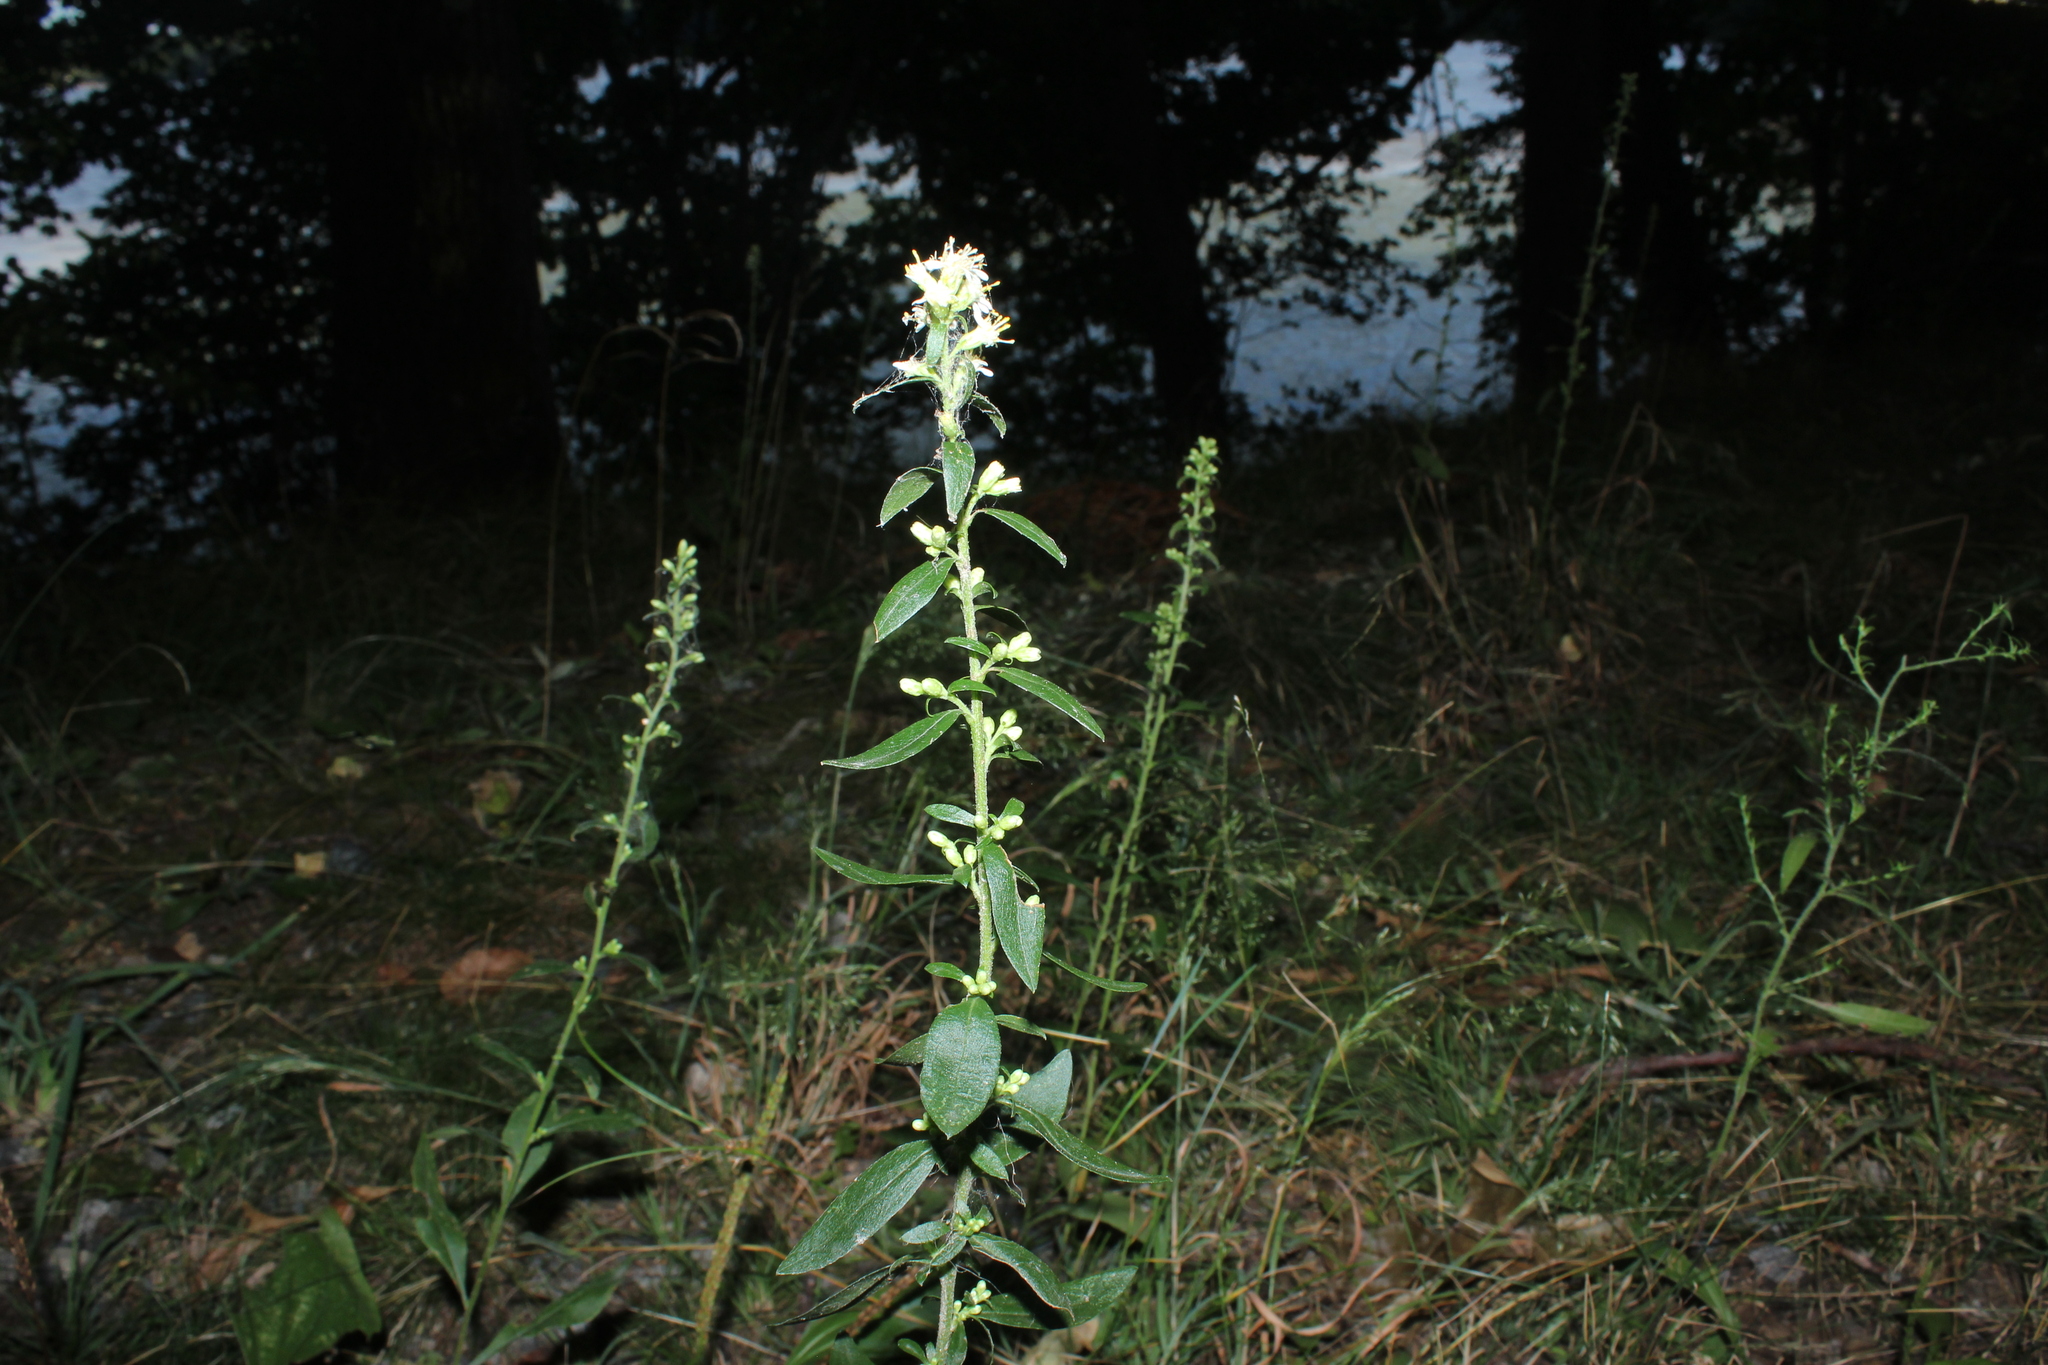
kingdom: Plantae
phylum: Tracheophyta
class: Magnoliopsida
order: Asterales
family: Asteraceae
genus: Solidago
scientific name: Solidago bicolor
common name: Silverrod
